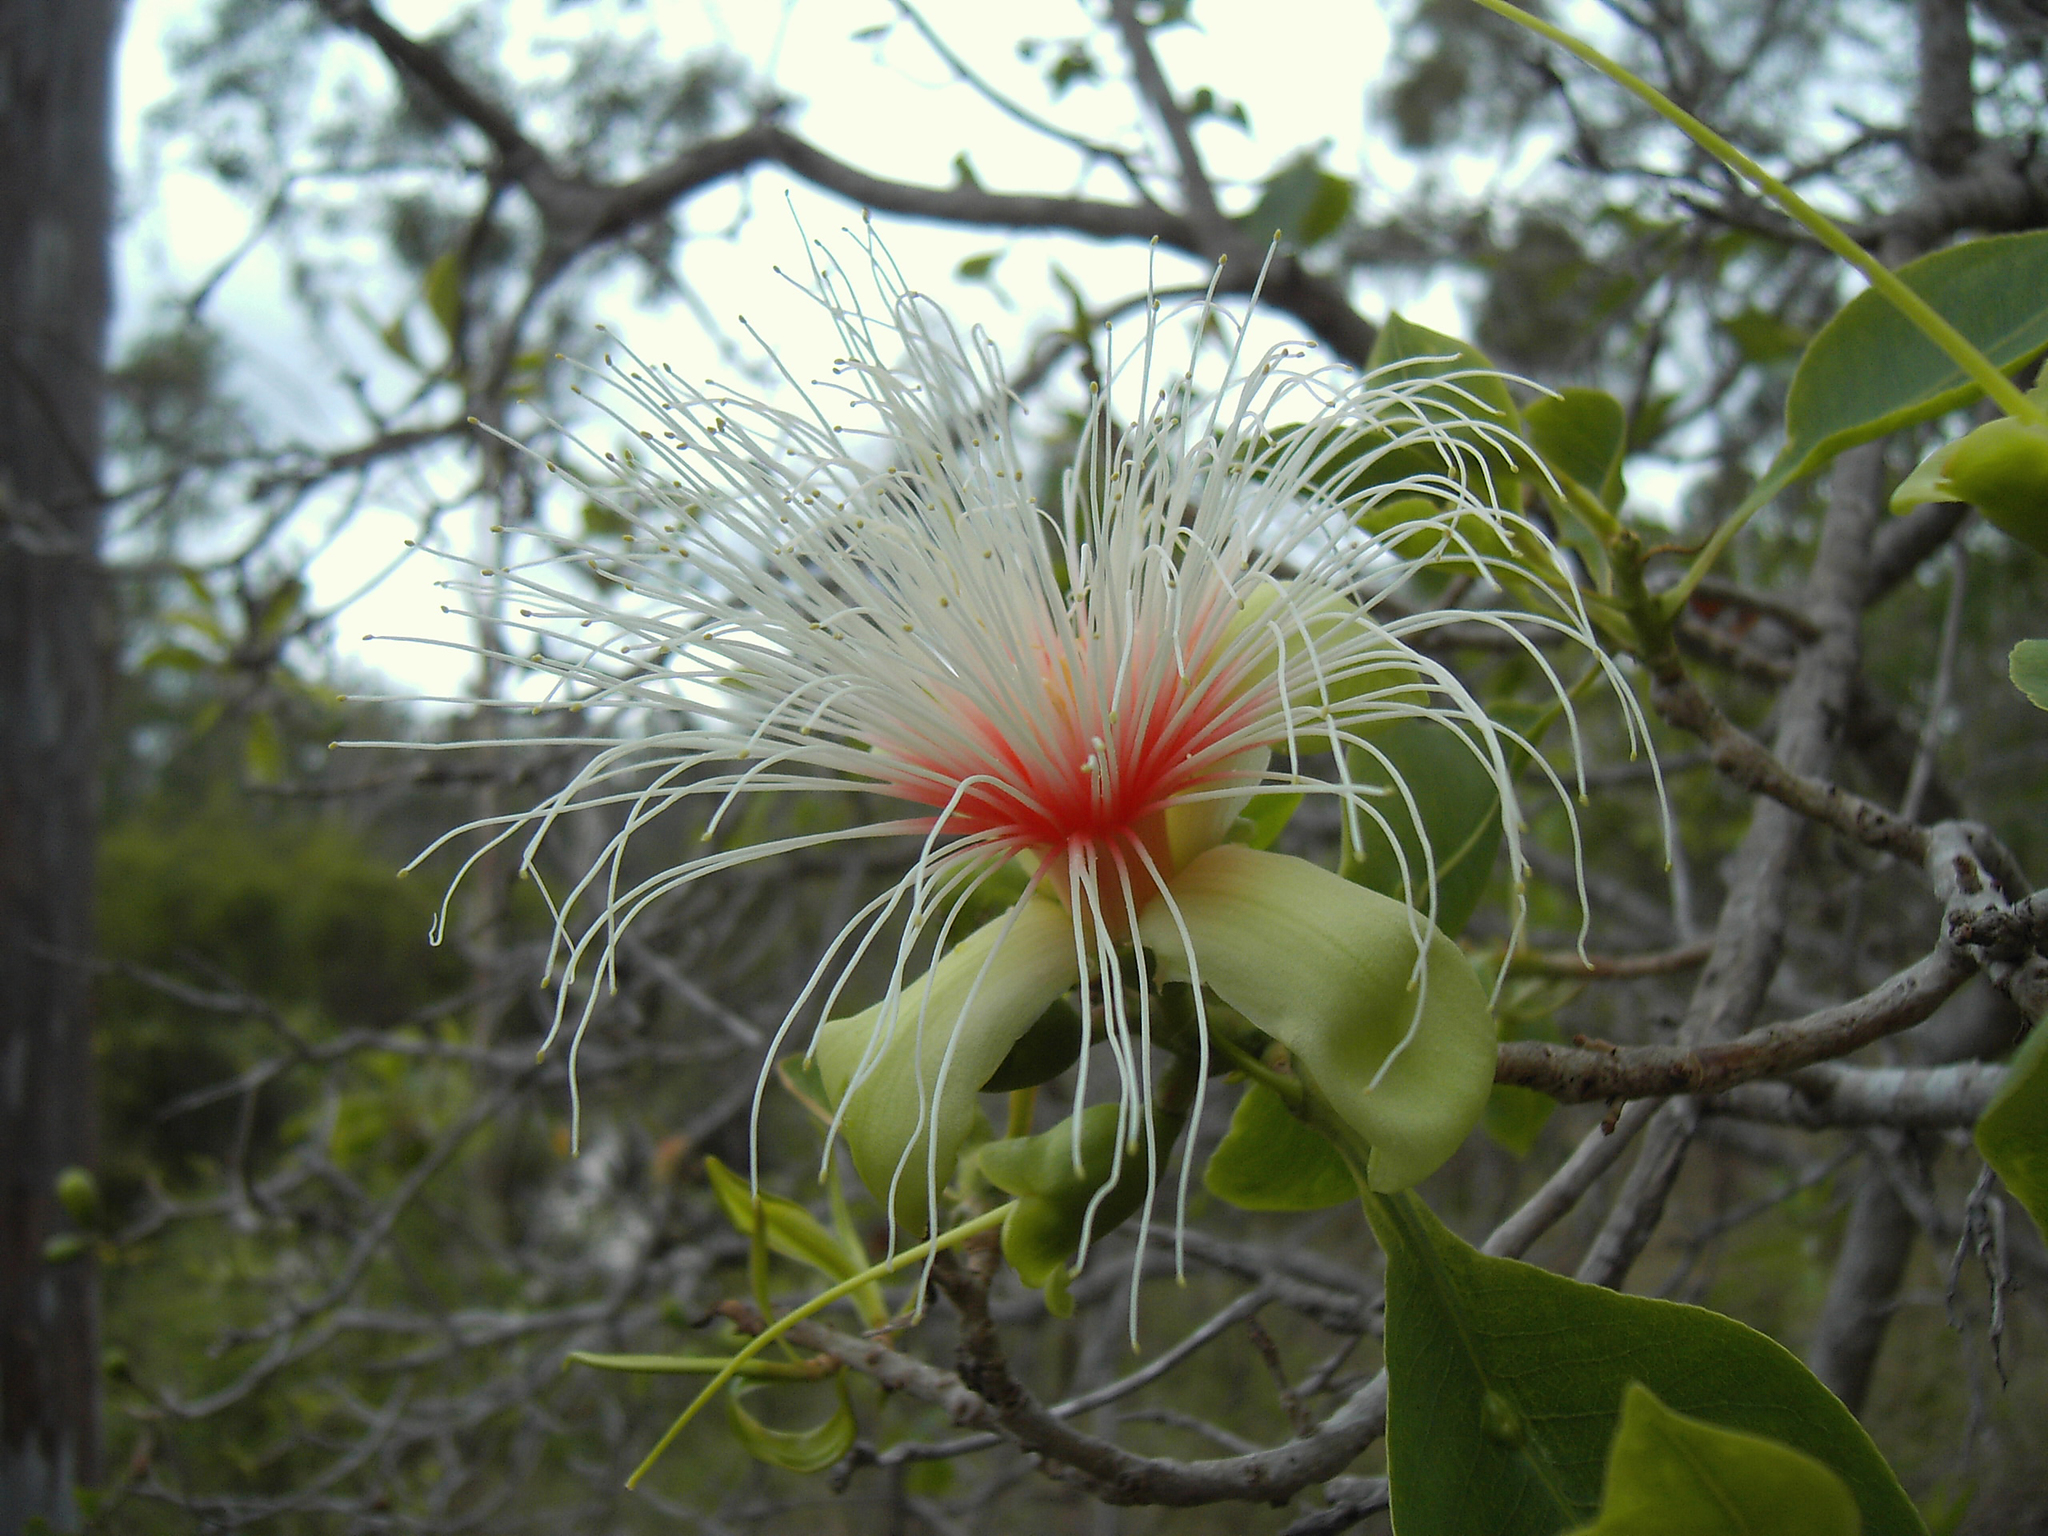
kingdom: Plantae
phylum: Tracheophyta
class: Magnoliopsida
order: Ericales
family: Lecythidaceae
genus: Planchonia
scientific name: Planchonia careya
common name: Cockatoo-apple
